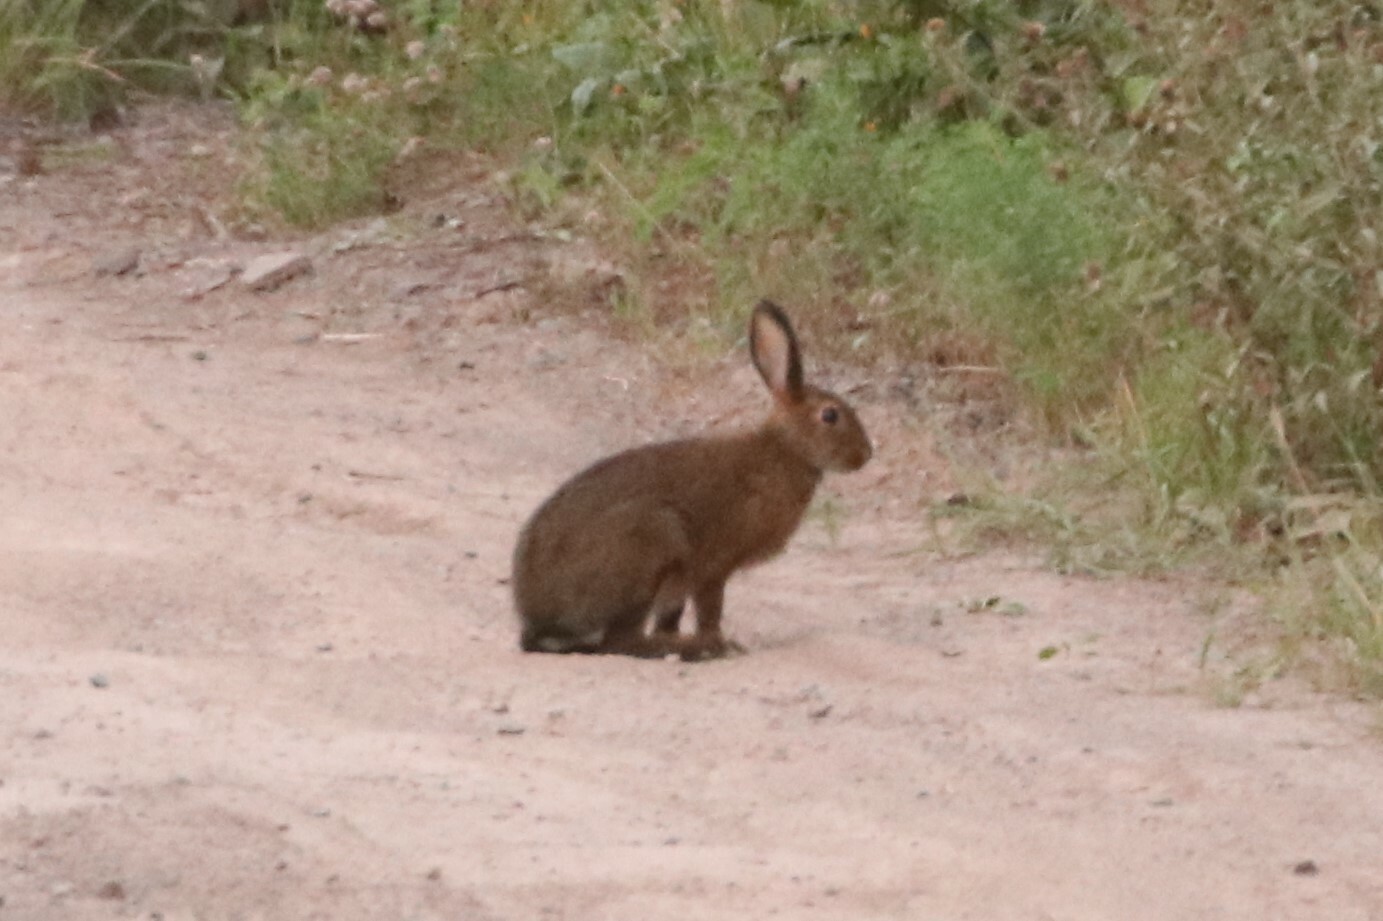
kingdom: Animalia
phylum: Chordata
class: Mammalia
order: Lagomorpha
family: Leporidae
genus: Lepus
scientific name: Lepus americanus
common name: Snowshoe hare
